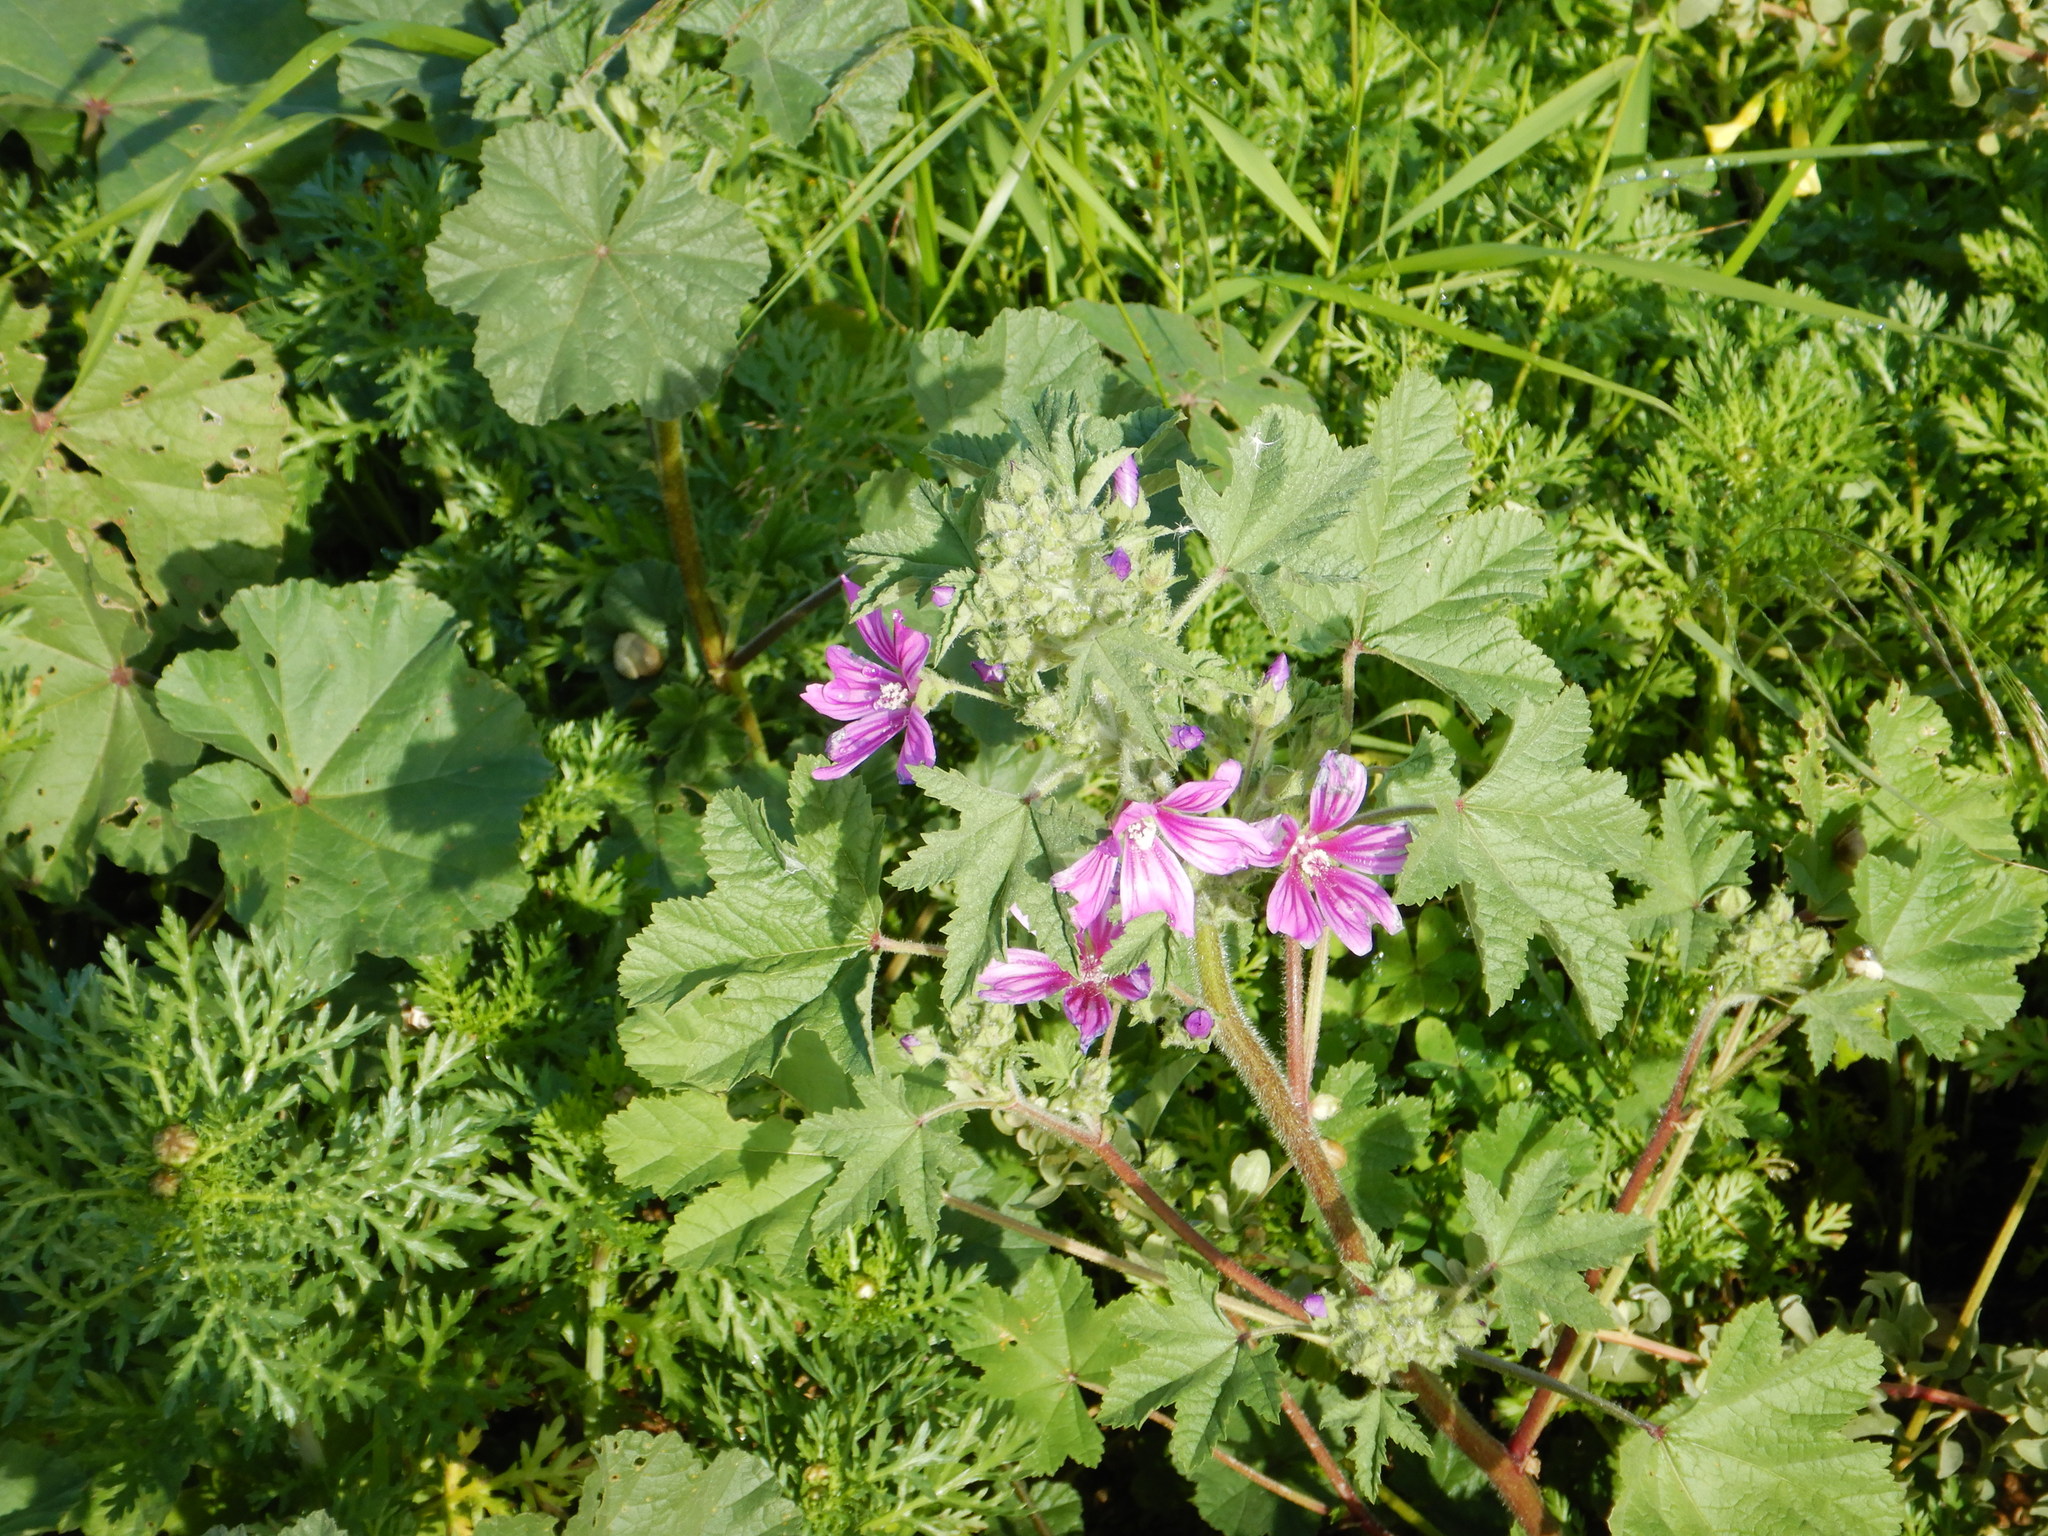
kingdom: Plantae
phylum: Tracheophyta
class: Magnoliopsida
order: Malvales
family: Malvaceae
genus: Malva
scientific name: Malva sylvestris
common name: Common mallow
